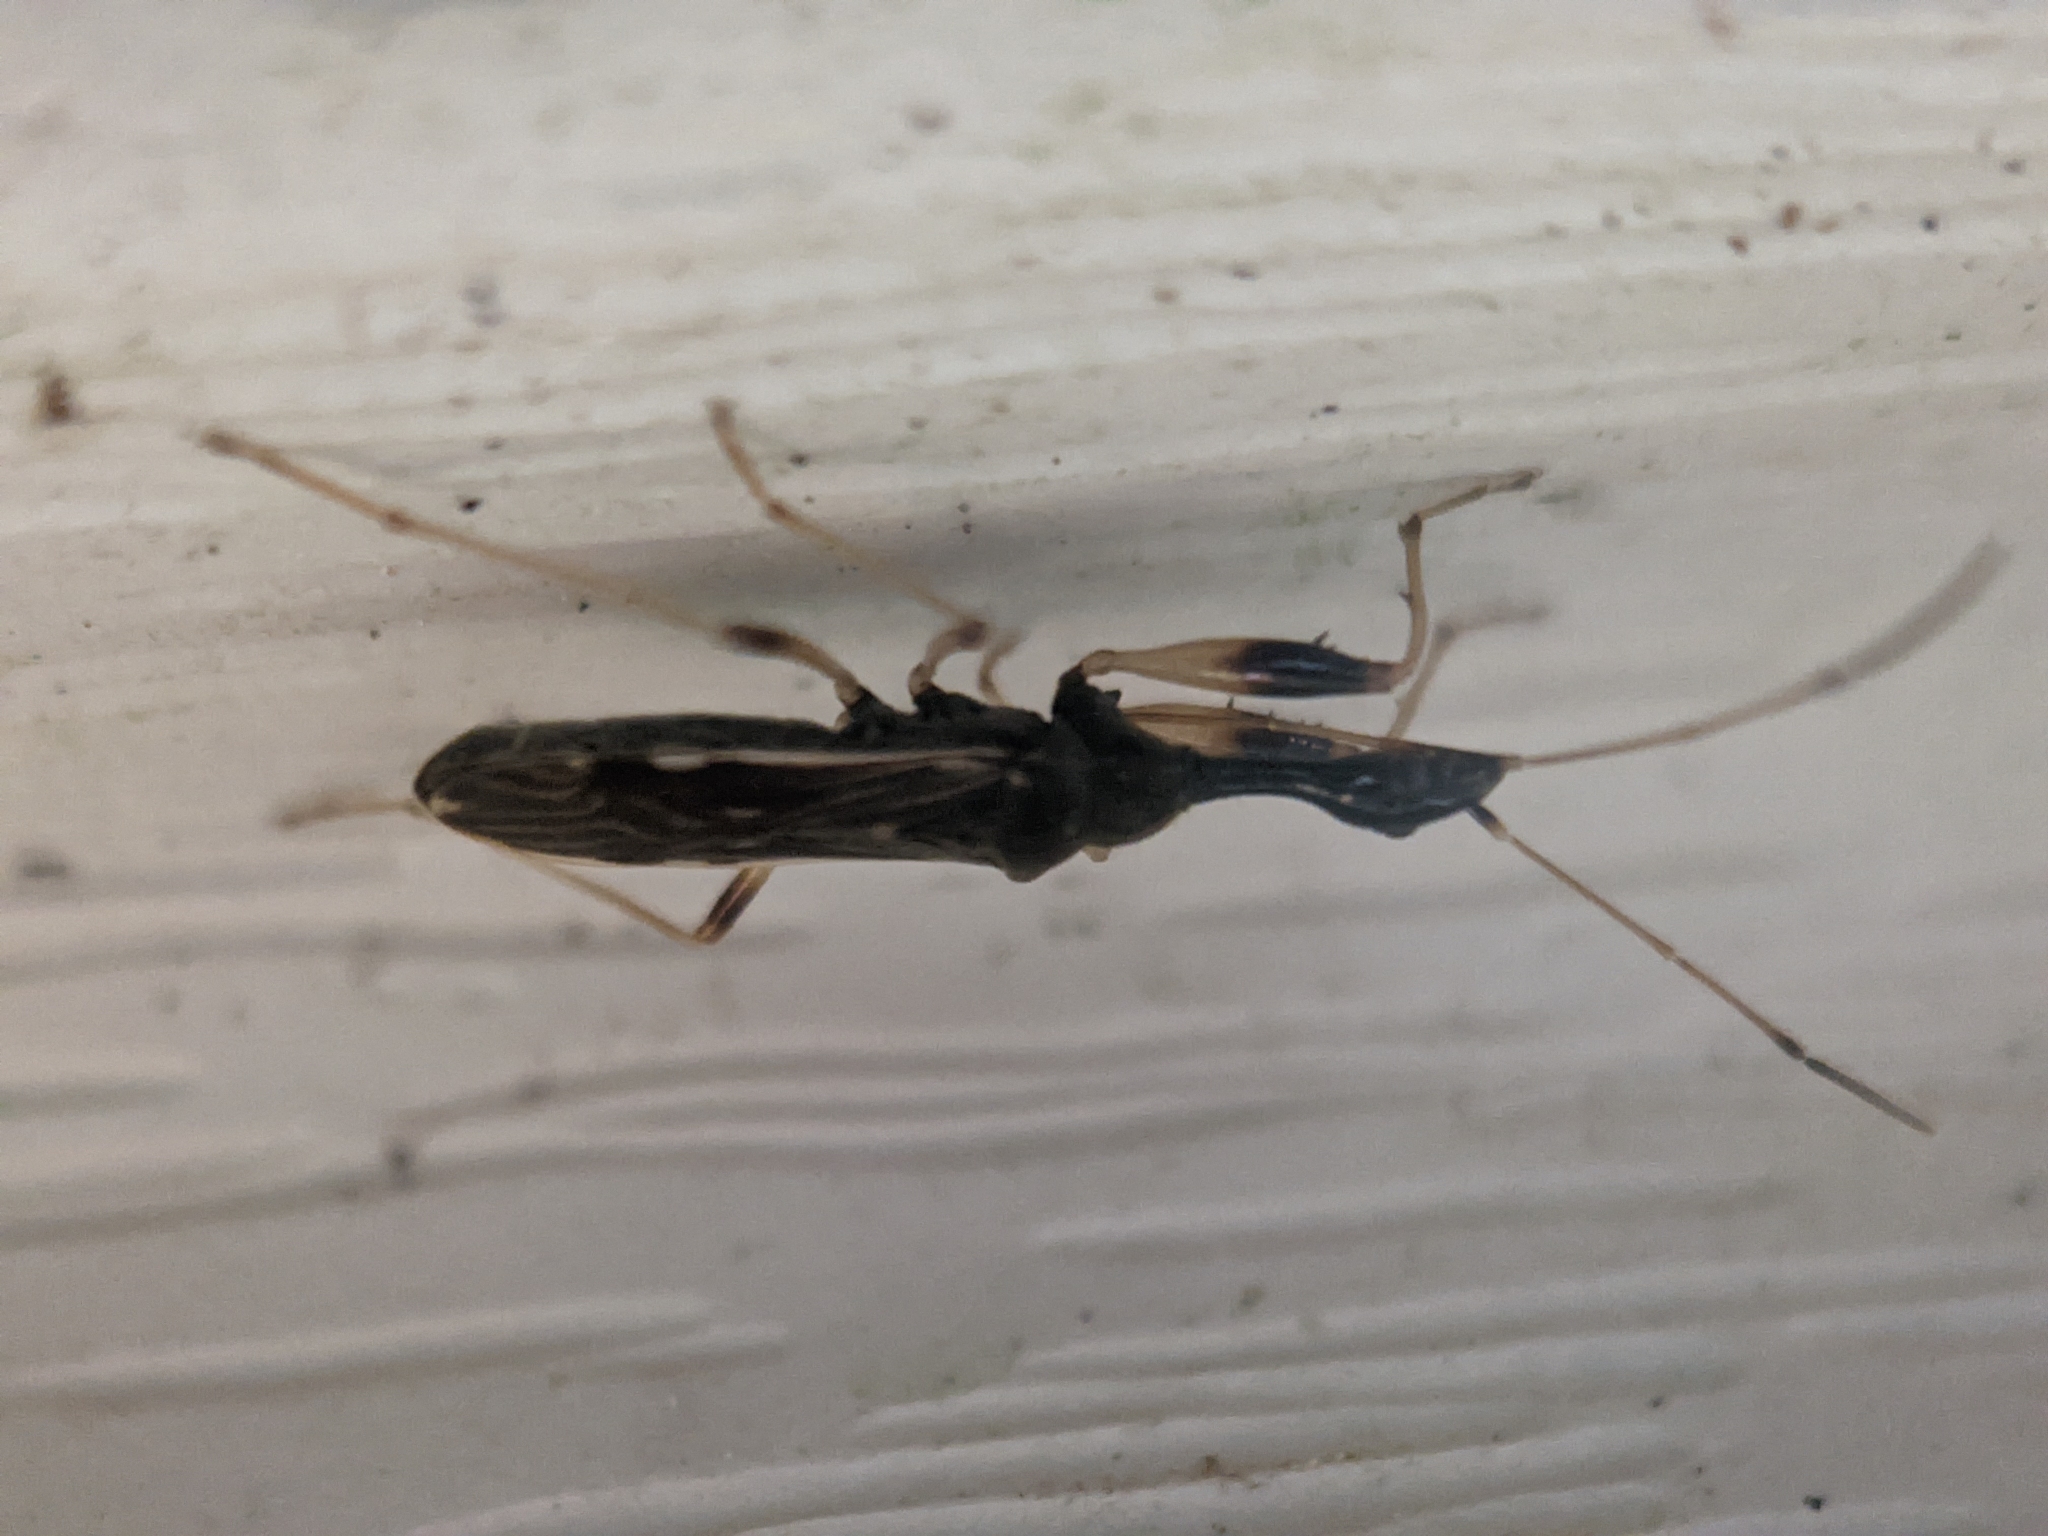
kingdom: Animalia
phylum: Arthropoda
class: Insecta
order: Hemiptera
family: Rhyparochromidae
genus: Myodocha
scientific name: Myodocha serripes
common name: Long-necked seed bug
